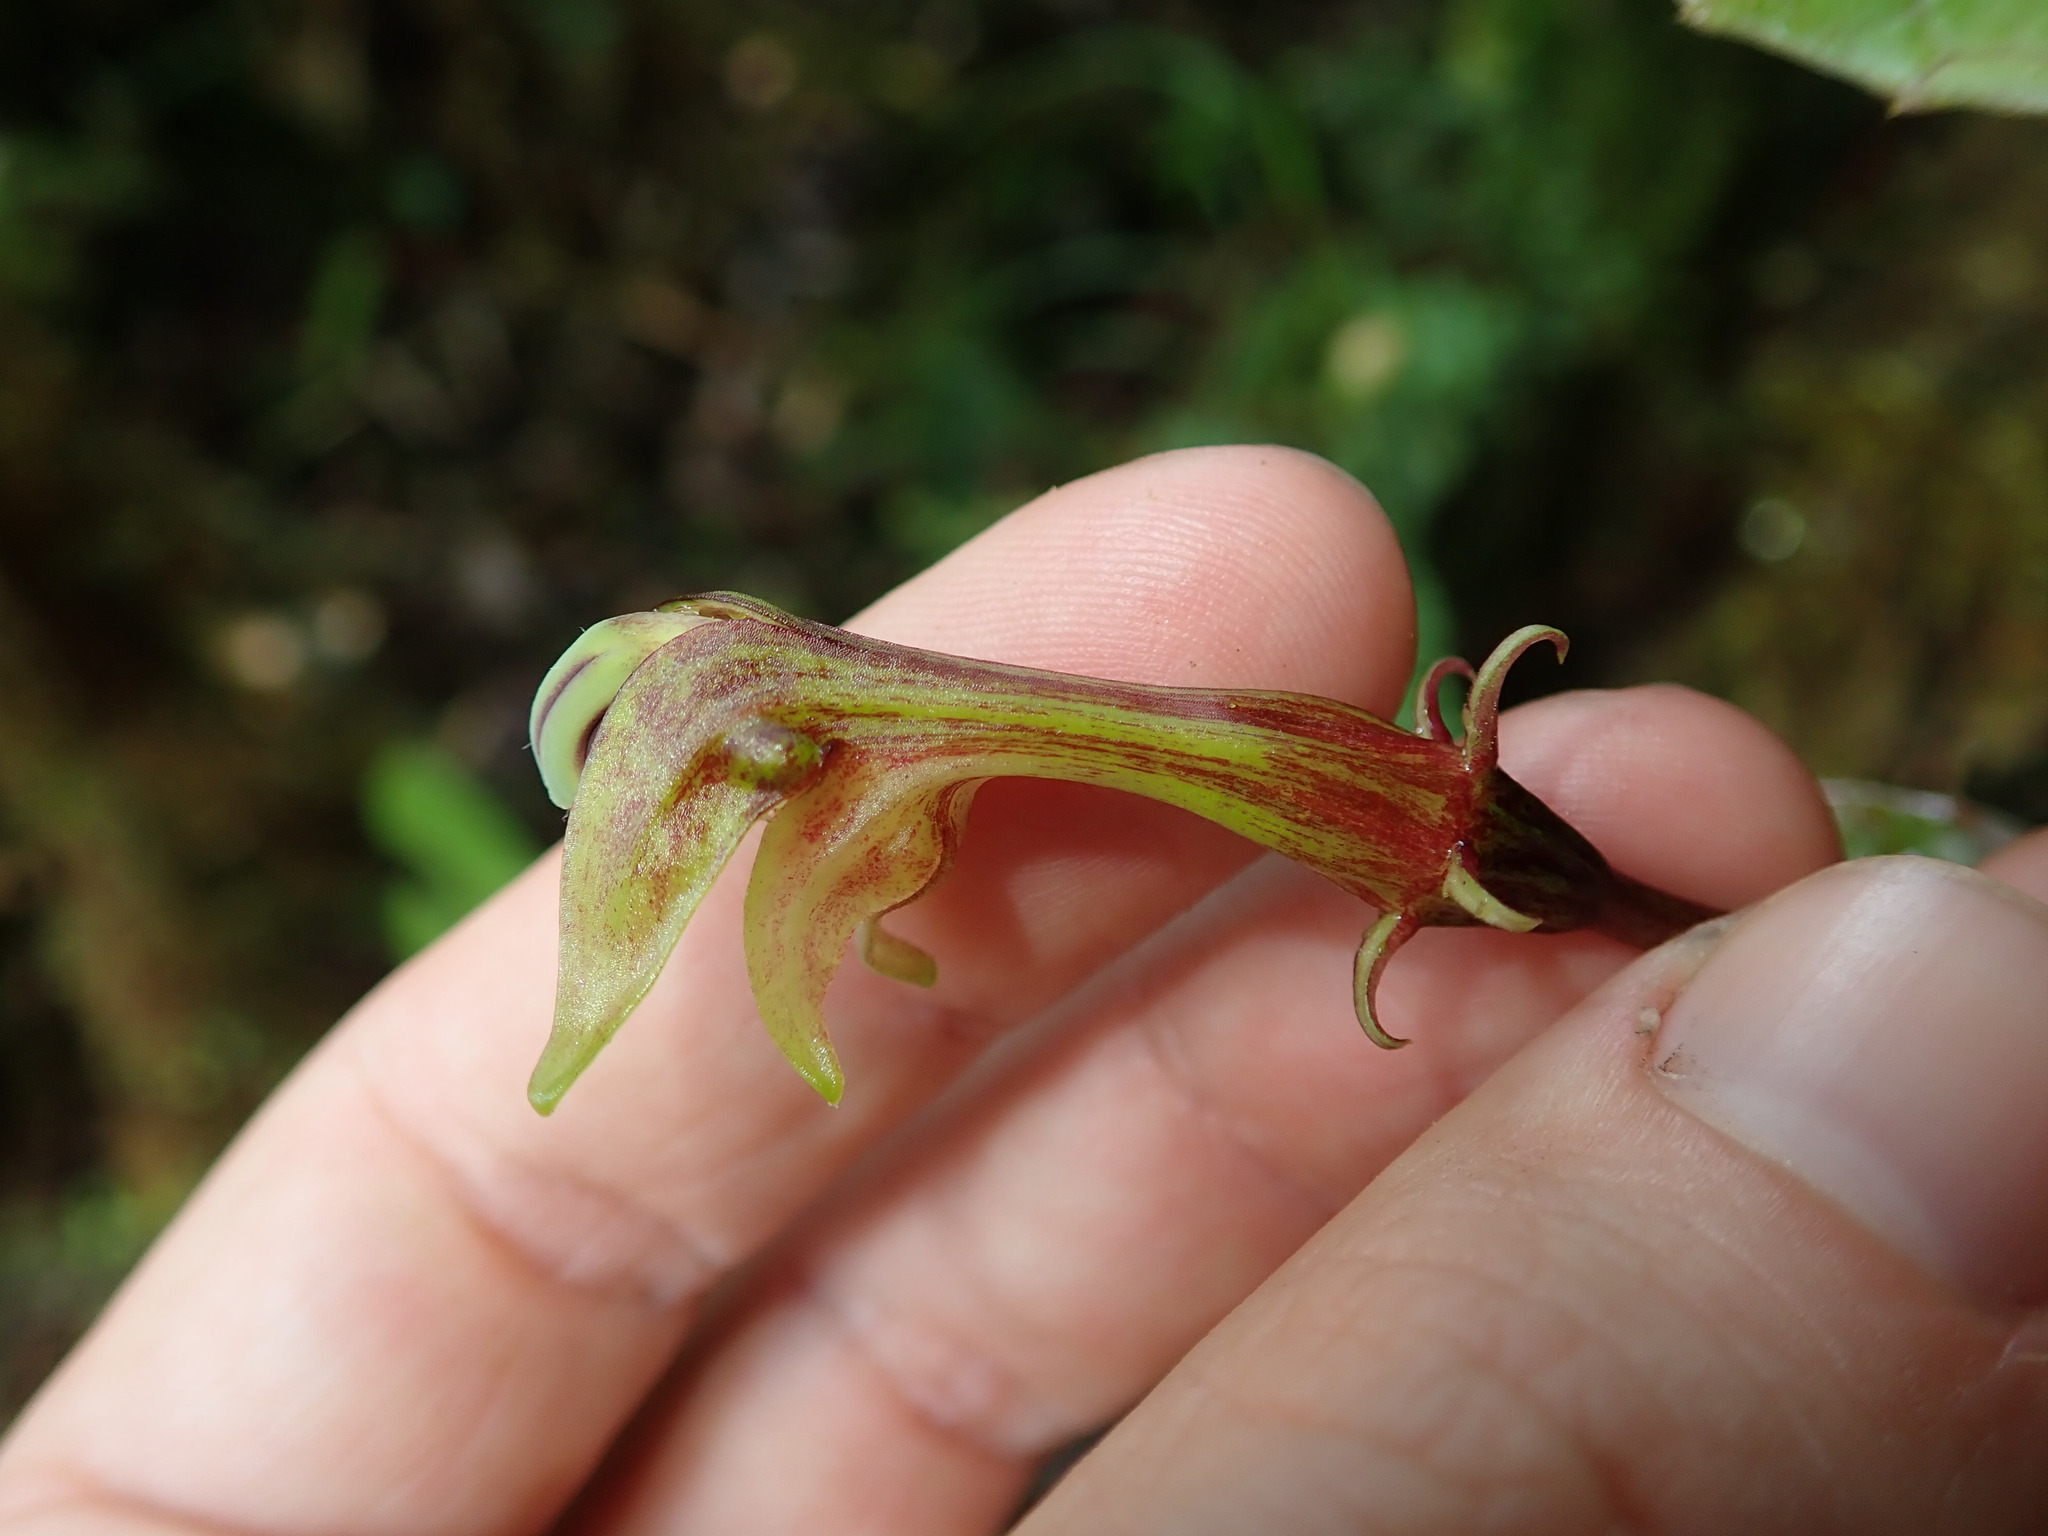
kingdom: Plantae
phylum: Tracheophyta
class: Magnoliopsida
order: Asterales
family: Campanulaceae
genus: Burmeistera
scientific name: Burmeistera huacamayensis
